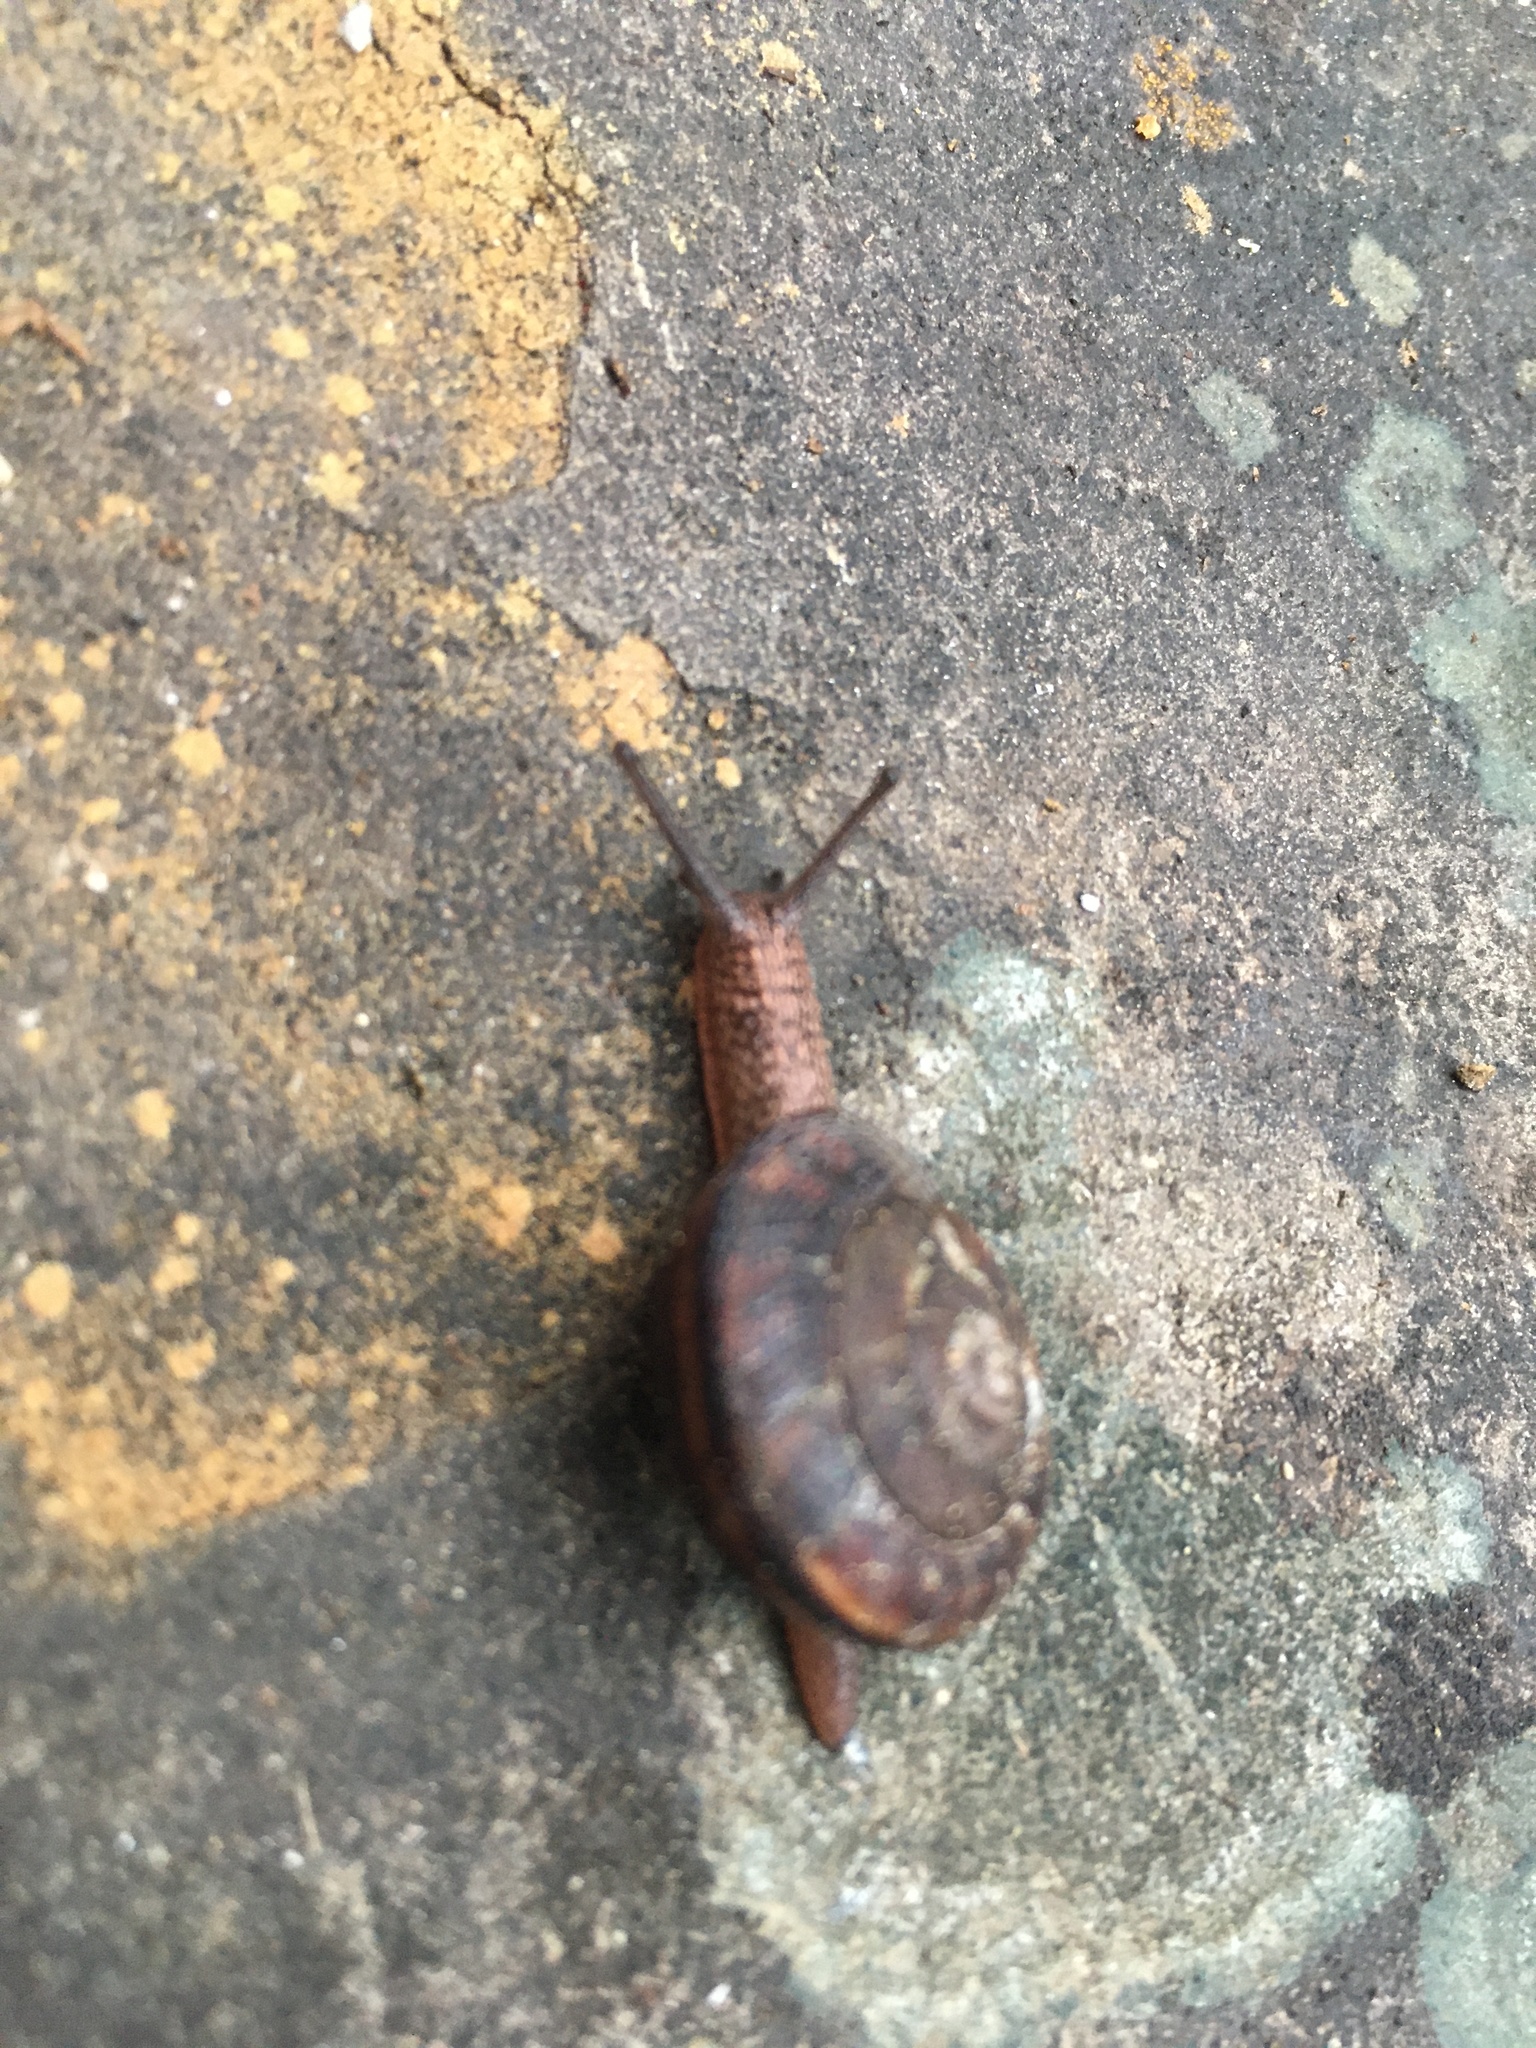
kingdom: Animalia
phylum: Mollusca
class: Gastropoda
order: Stylommatophora
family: Xanthonychidae
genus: Monadenia
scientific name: Monadenia fidelis
